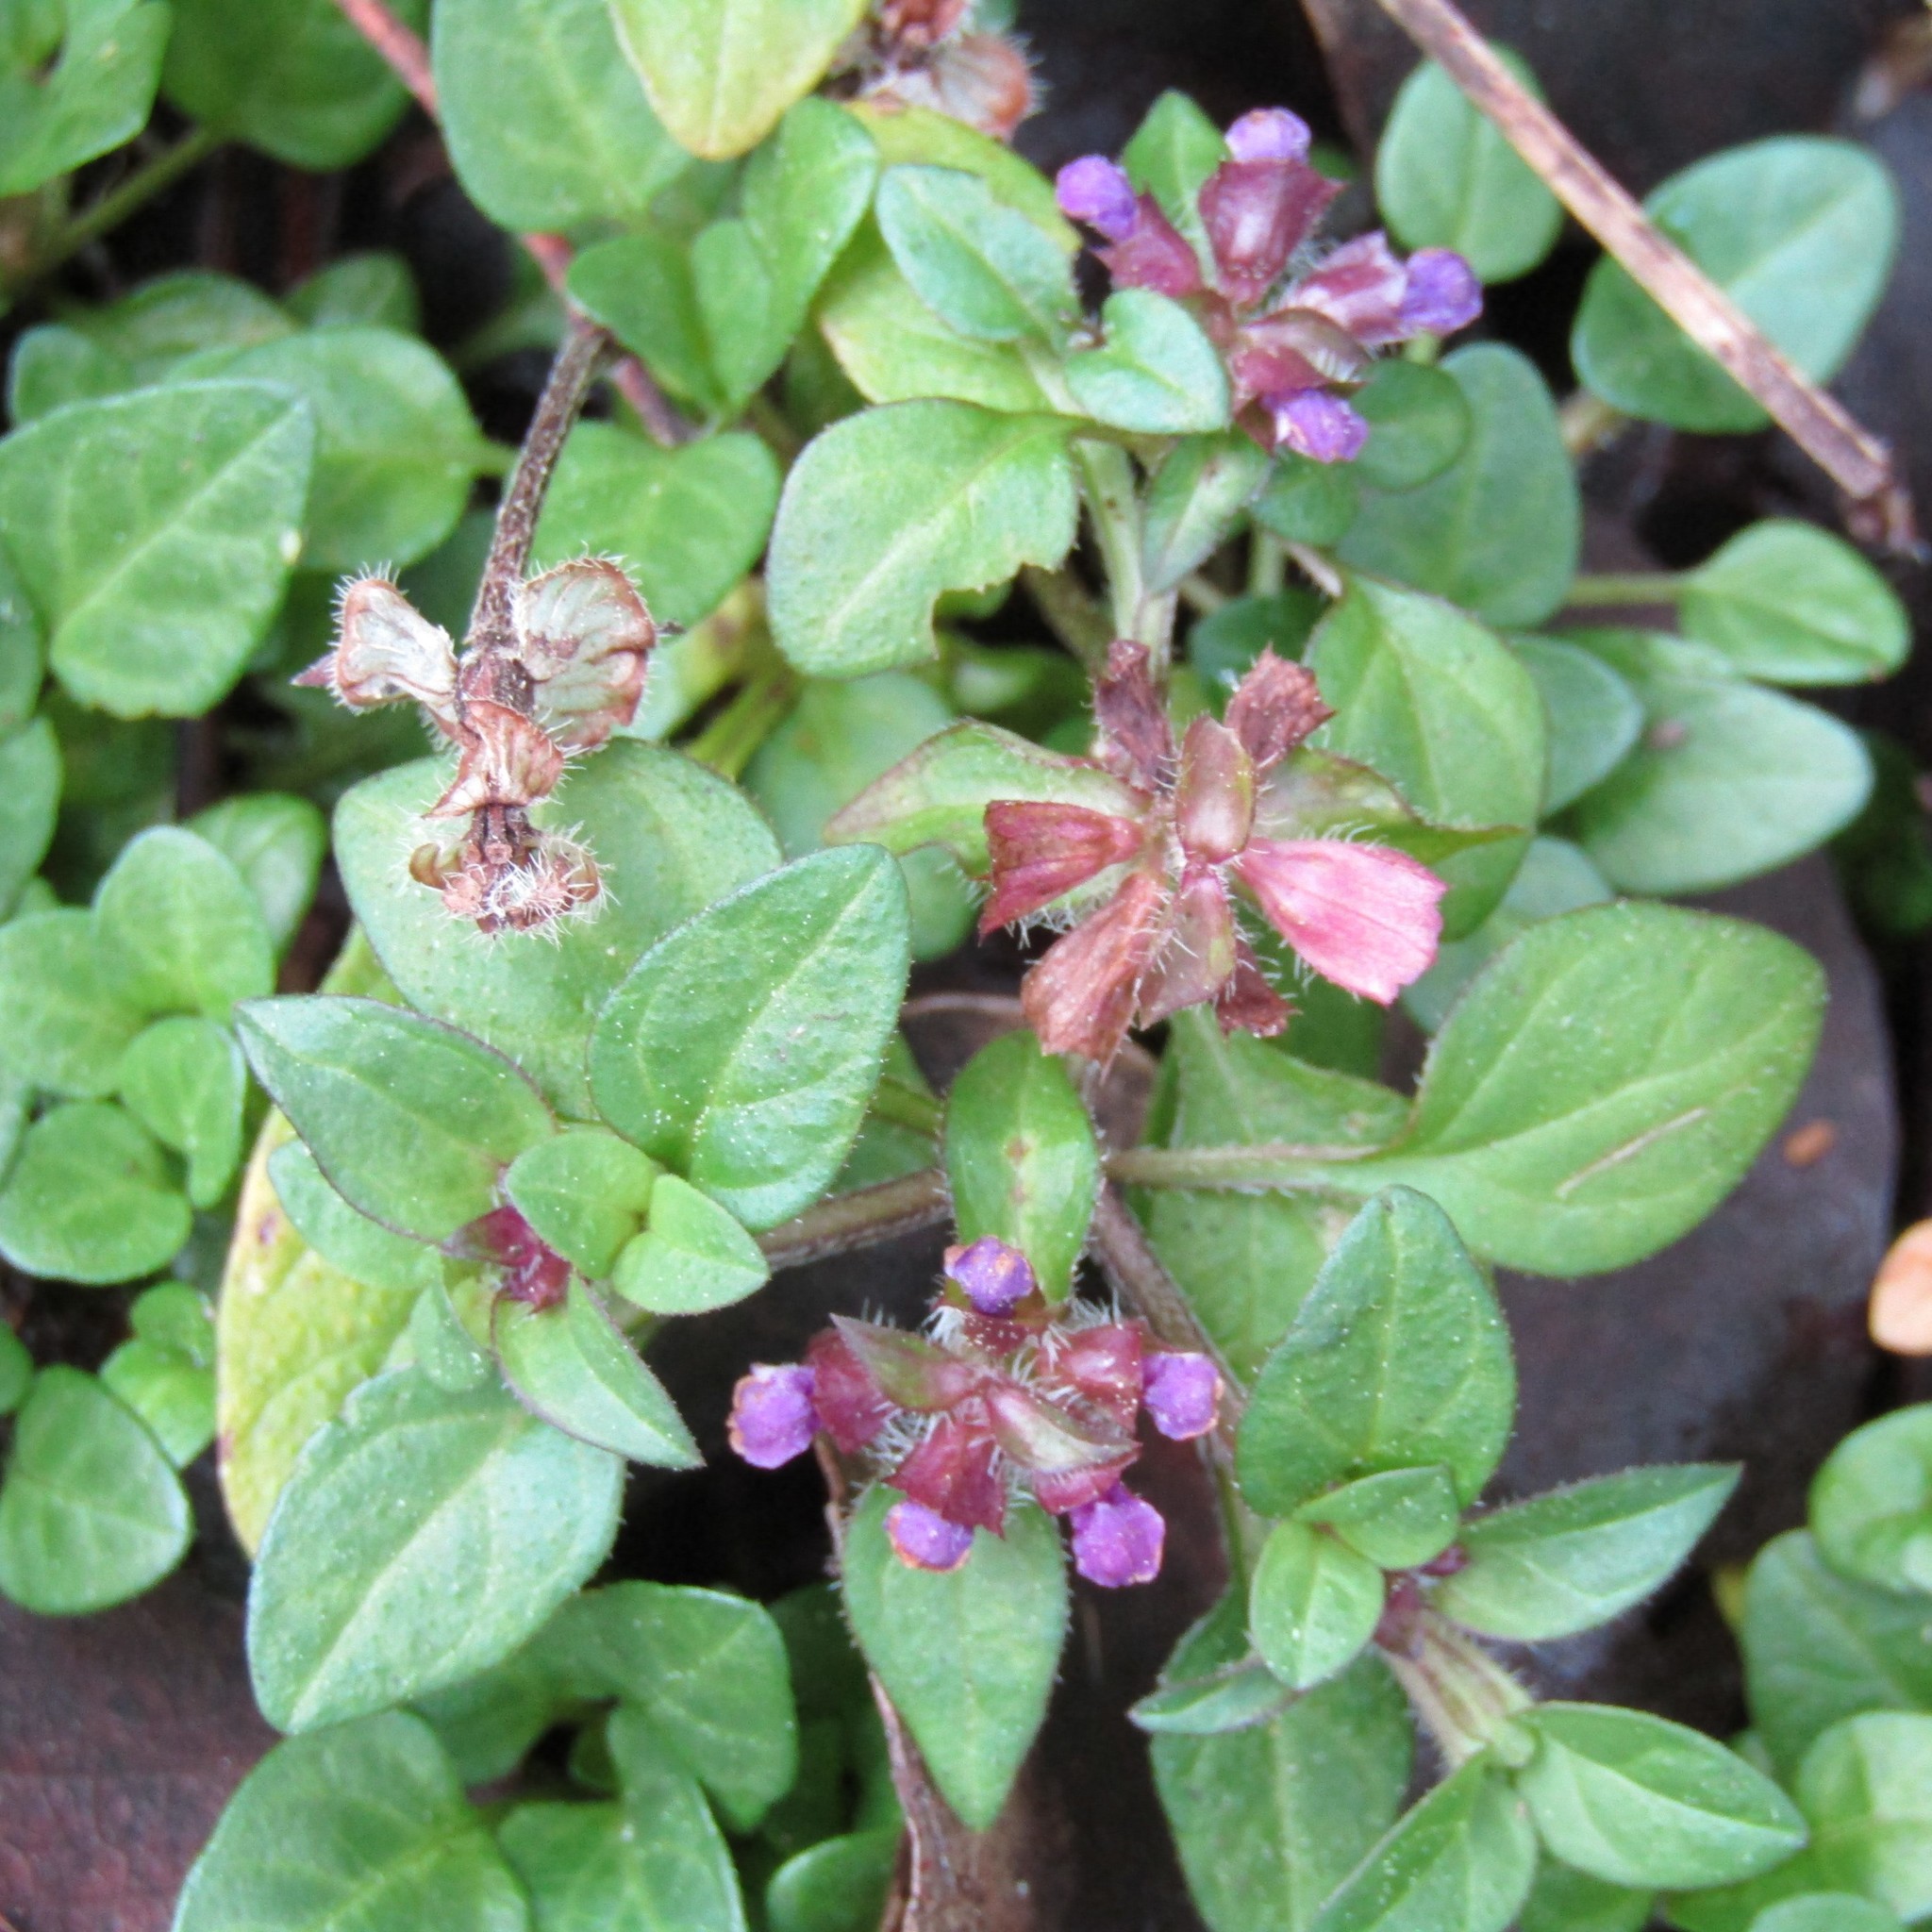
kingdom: Plantae
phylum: Tracheophyta
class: Magnoliopsida
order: Lamiales
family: Lamiaceae
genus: Prunella
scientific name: Prunella vulgaris
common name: Heal-all
